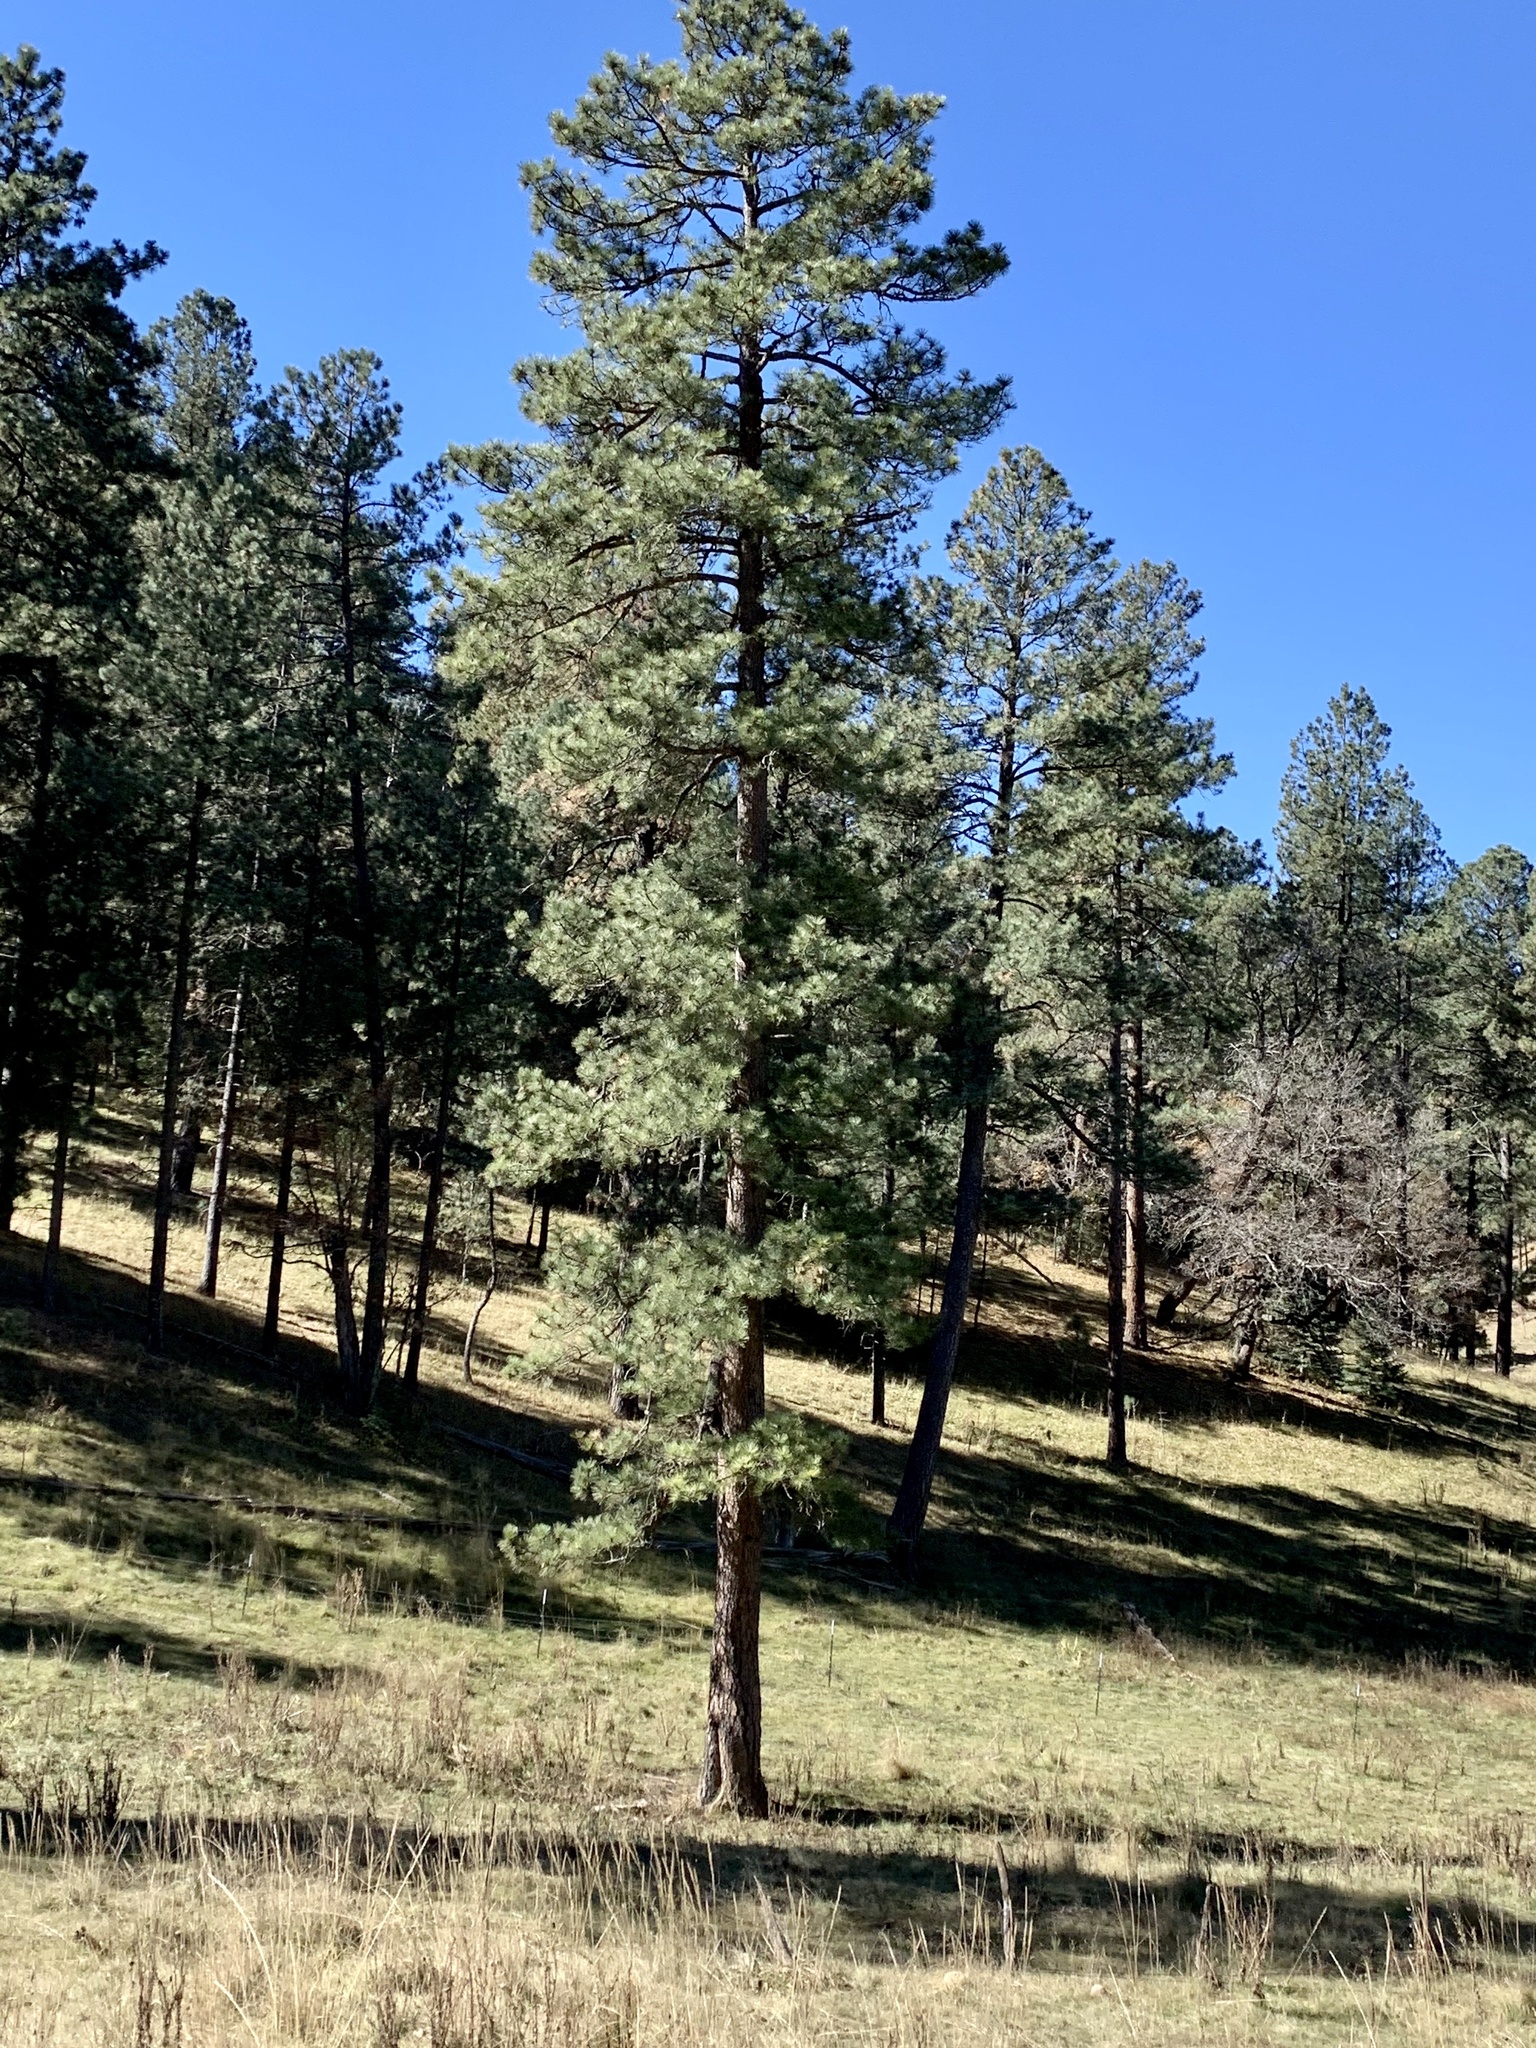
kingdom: Plantae
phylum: Tracheophyta
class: Pinopsida
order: Pinales
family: Pinaceae
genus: Pinus
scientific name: Pinus ponderosa
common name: Western yellow-pine
